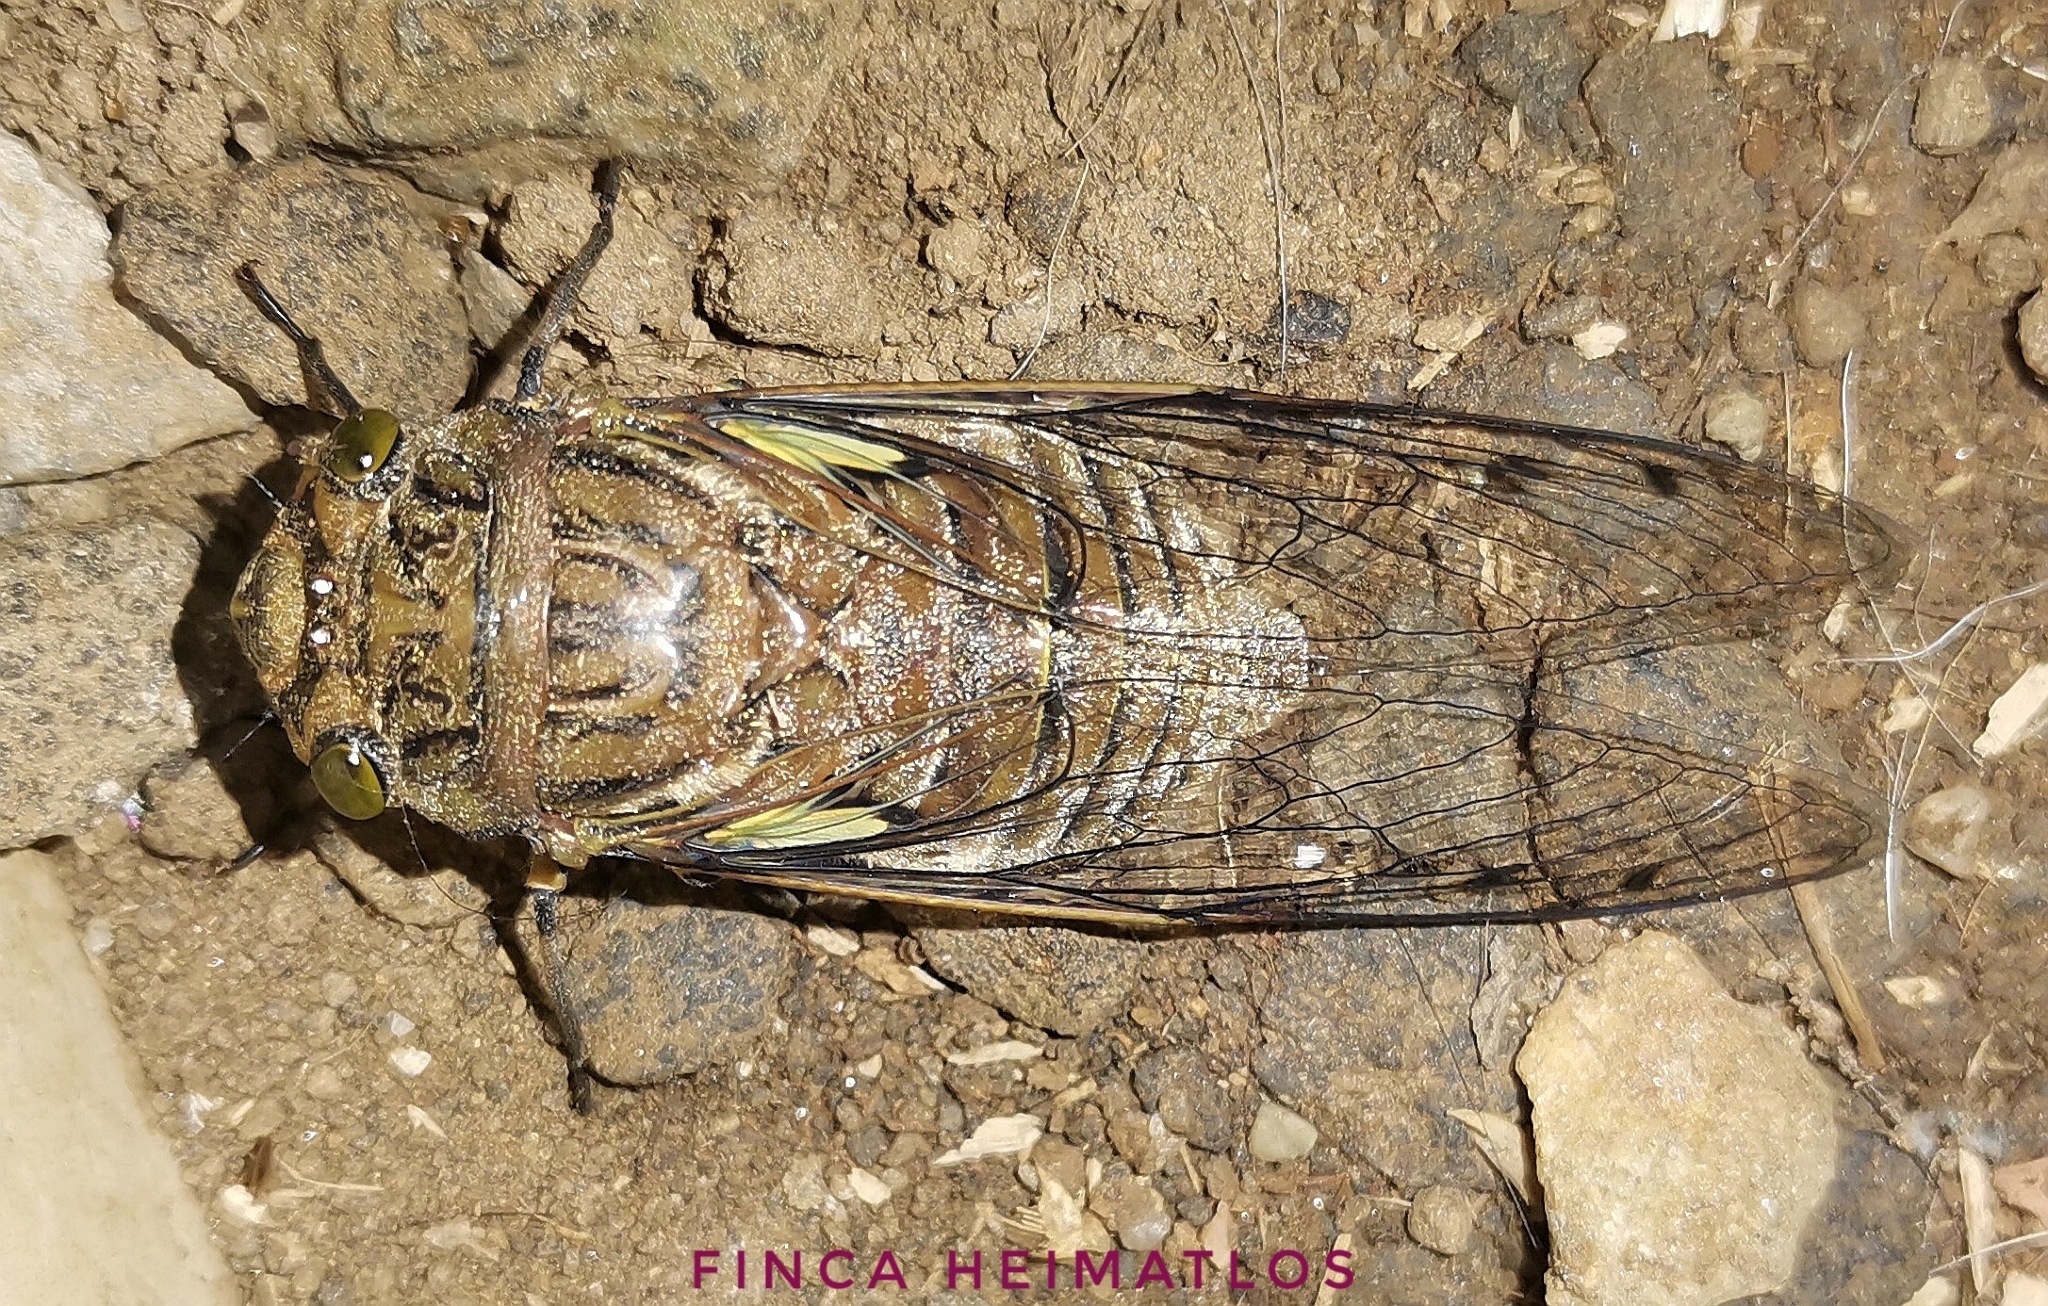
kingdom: Animalia
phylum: Arthropoda
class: Insecta
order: Hemiptera
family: Cicadidae
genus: Quesada
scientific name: Quesada gigas
